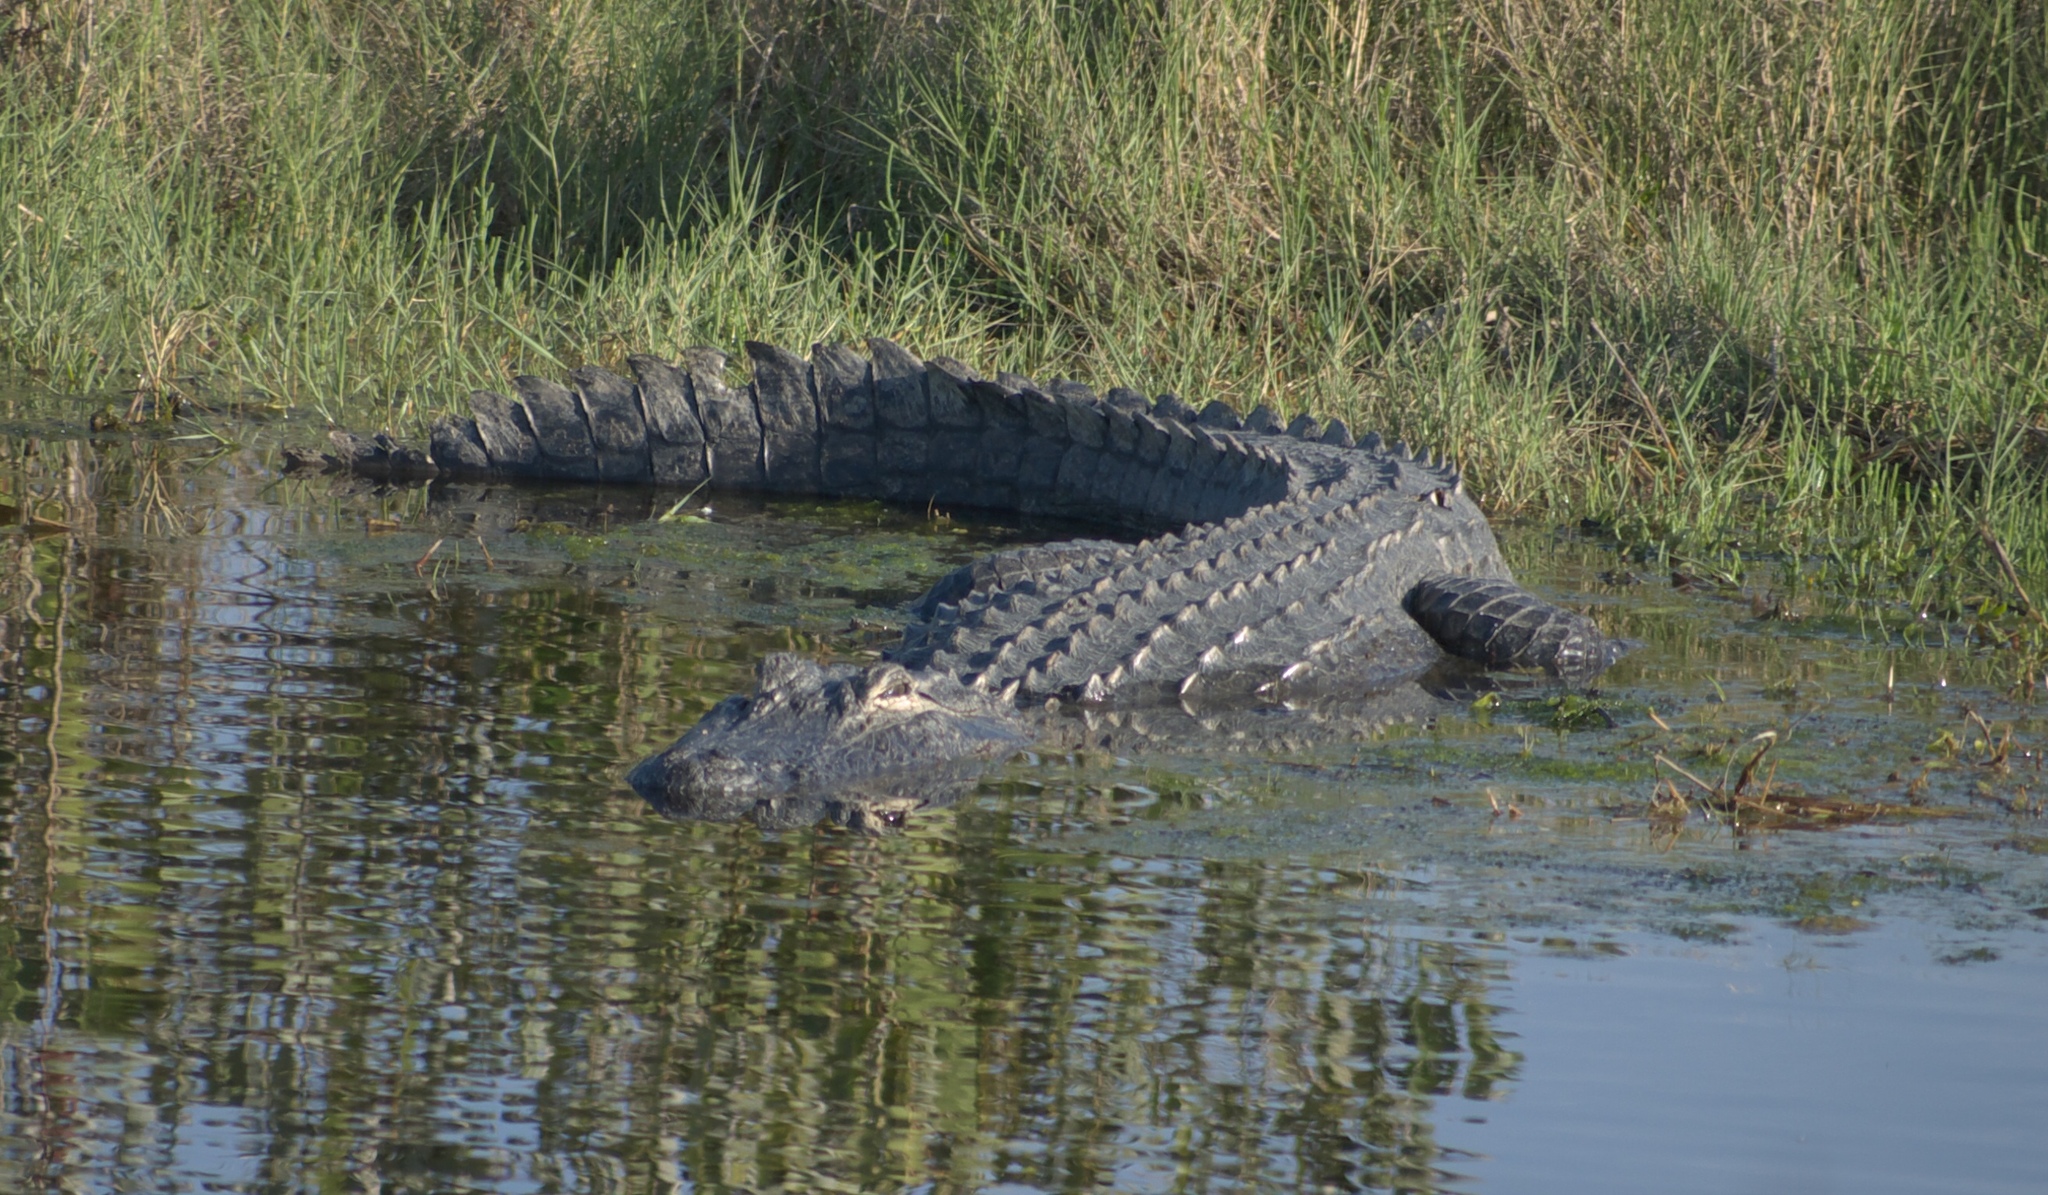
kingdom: Animalia
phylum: Chordata
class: Crocodylia
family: Alligatoridae
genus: Alligator
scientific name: Alligator mississippiensis
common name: American alligator
